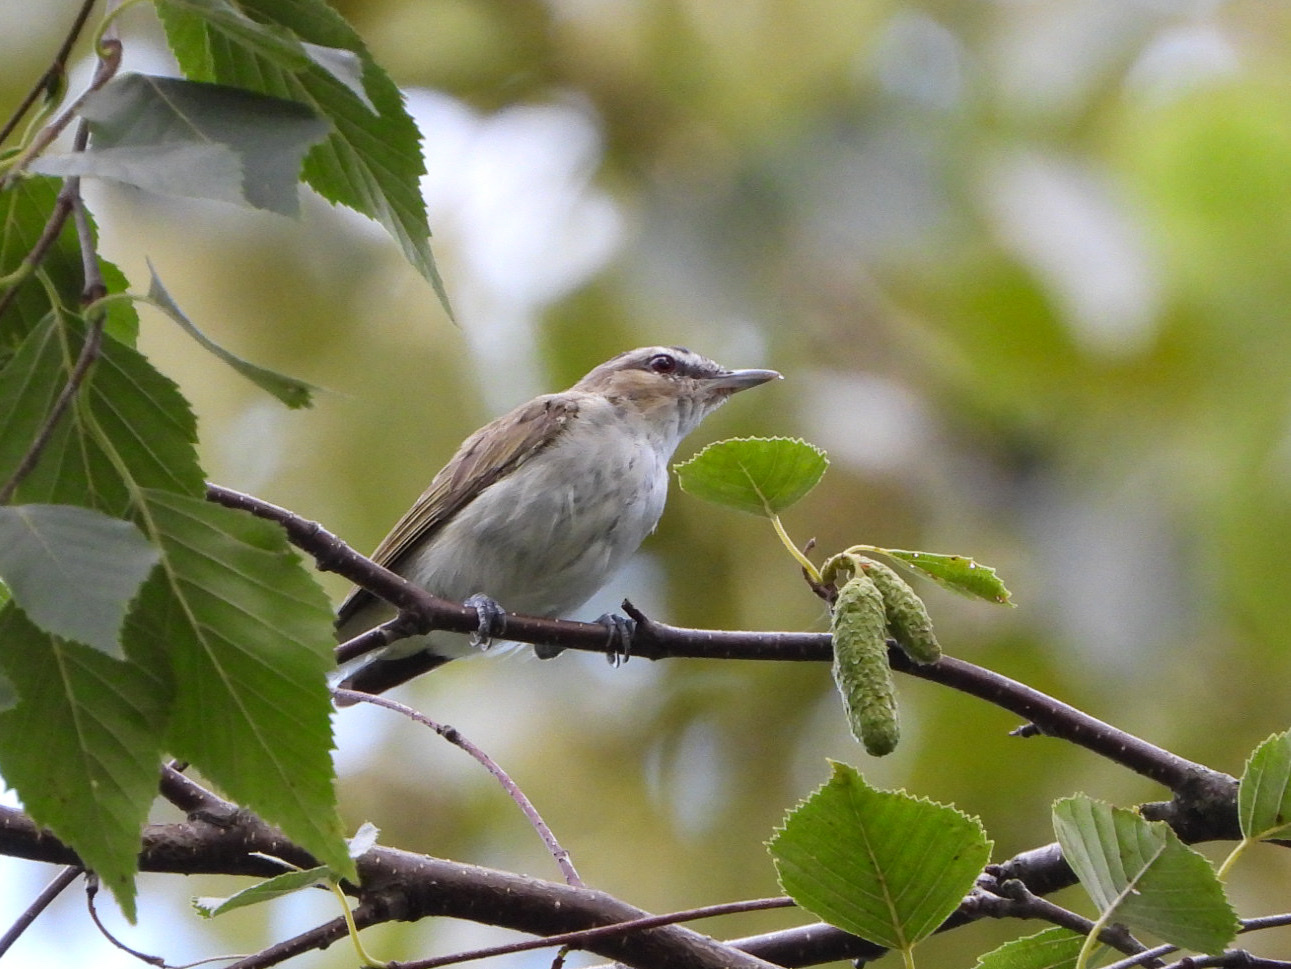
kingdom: Animalia
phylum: Chordata
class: Aves
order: Passeriformes
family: Vireonidae
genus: Vireo
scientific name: Vireo olivaceus
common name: Red-eyed vireo
